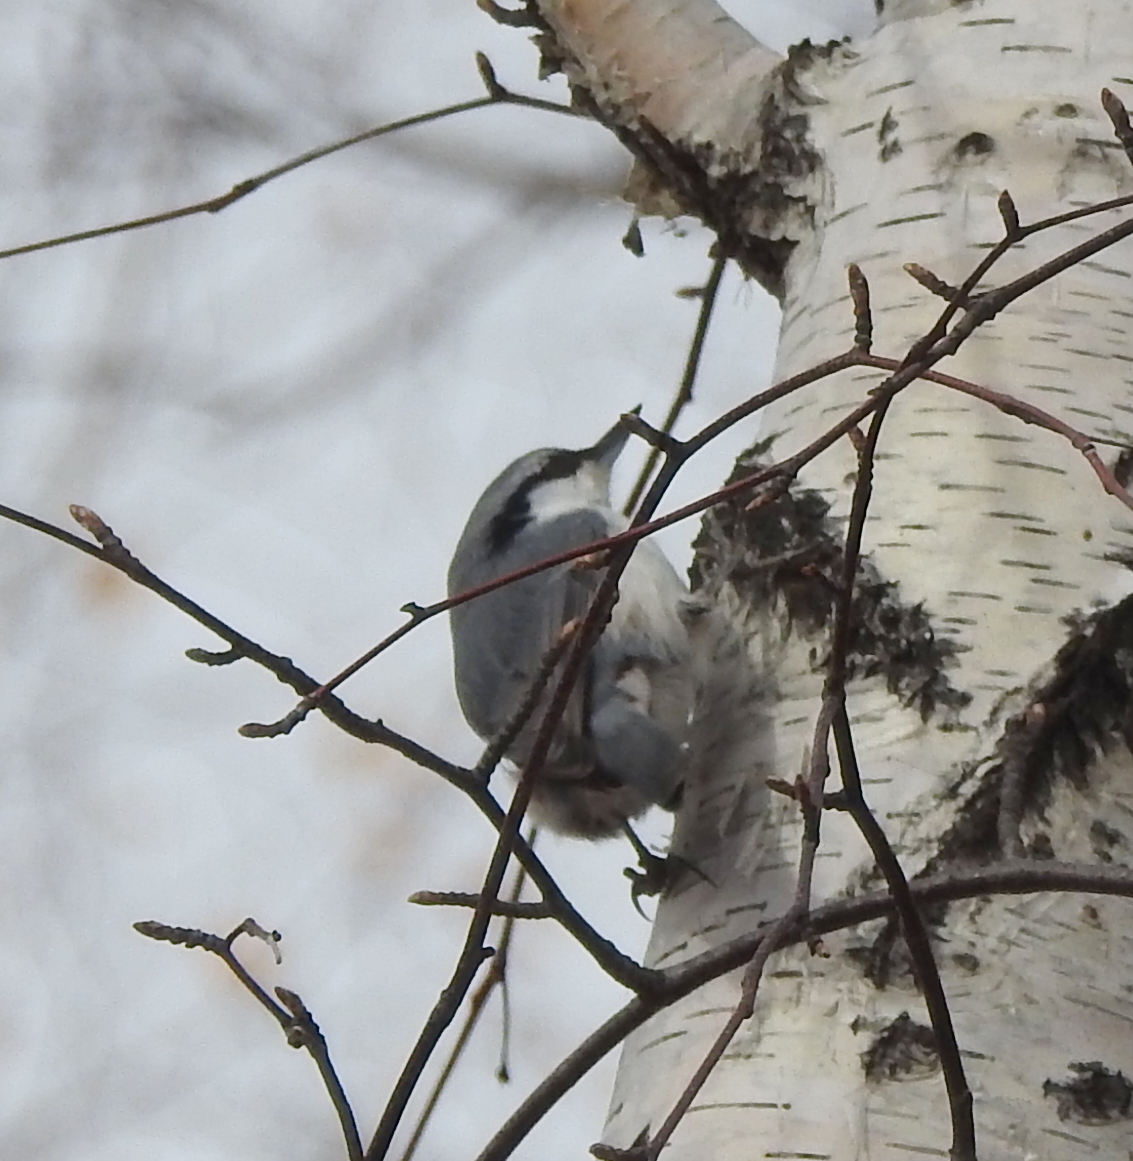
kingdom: Animalia
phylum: Chordata
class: Aves
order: Passeriformes
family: Sittidae
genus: Sitta
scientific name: Sitta europaea
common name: Eurasian nuthatch
